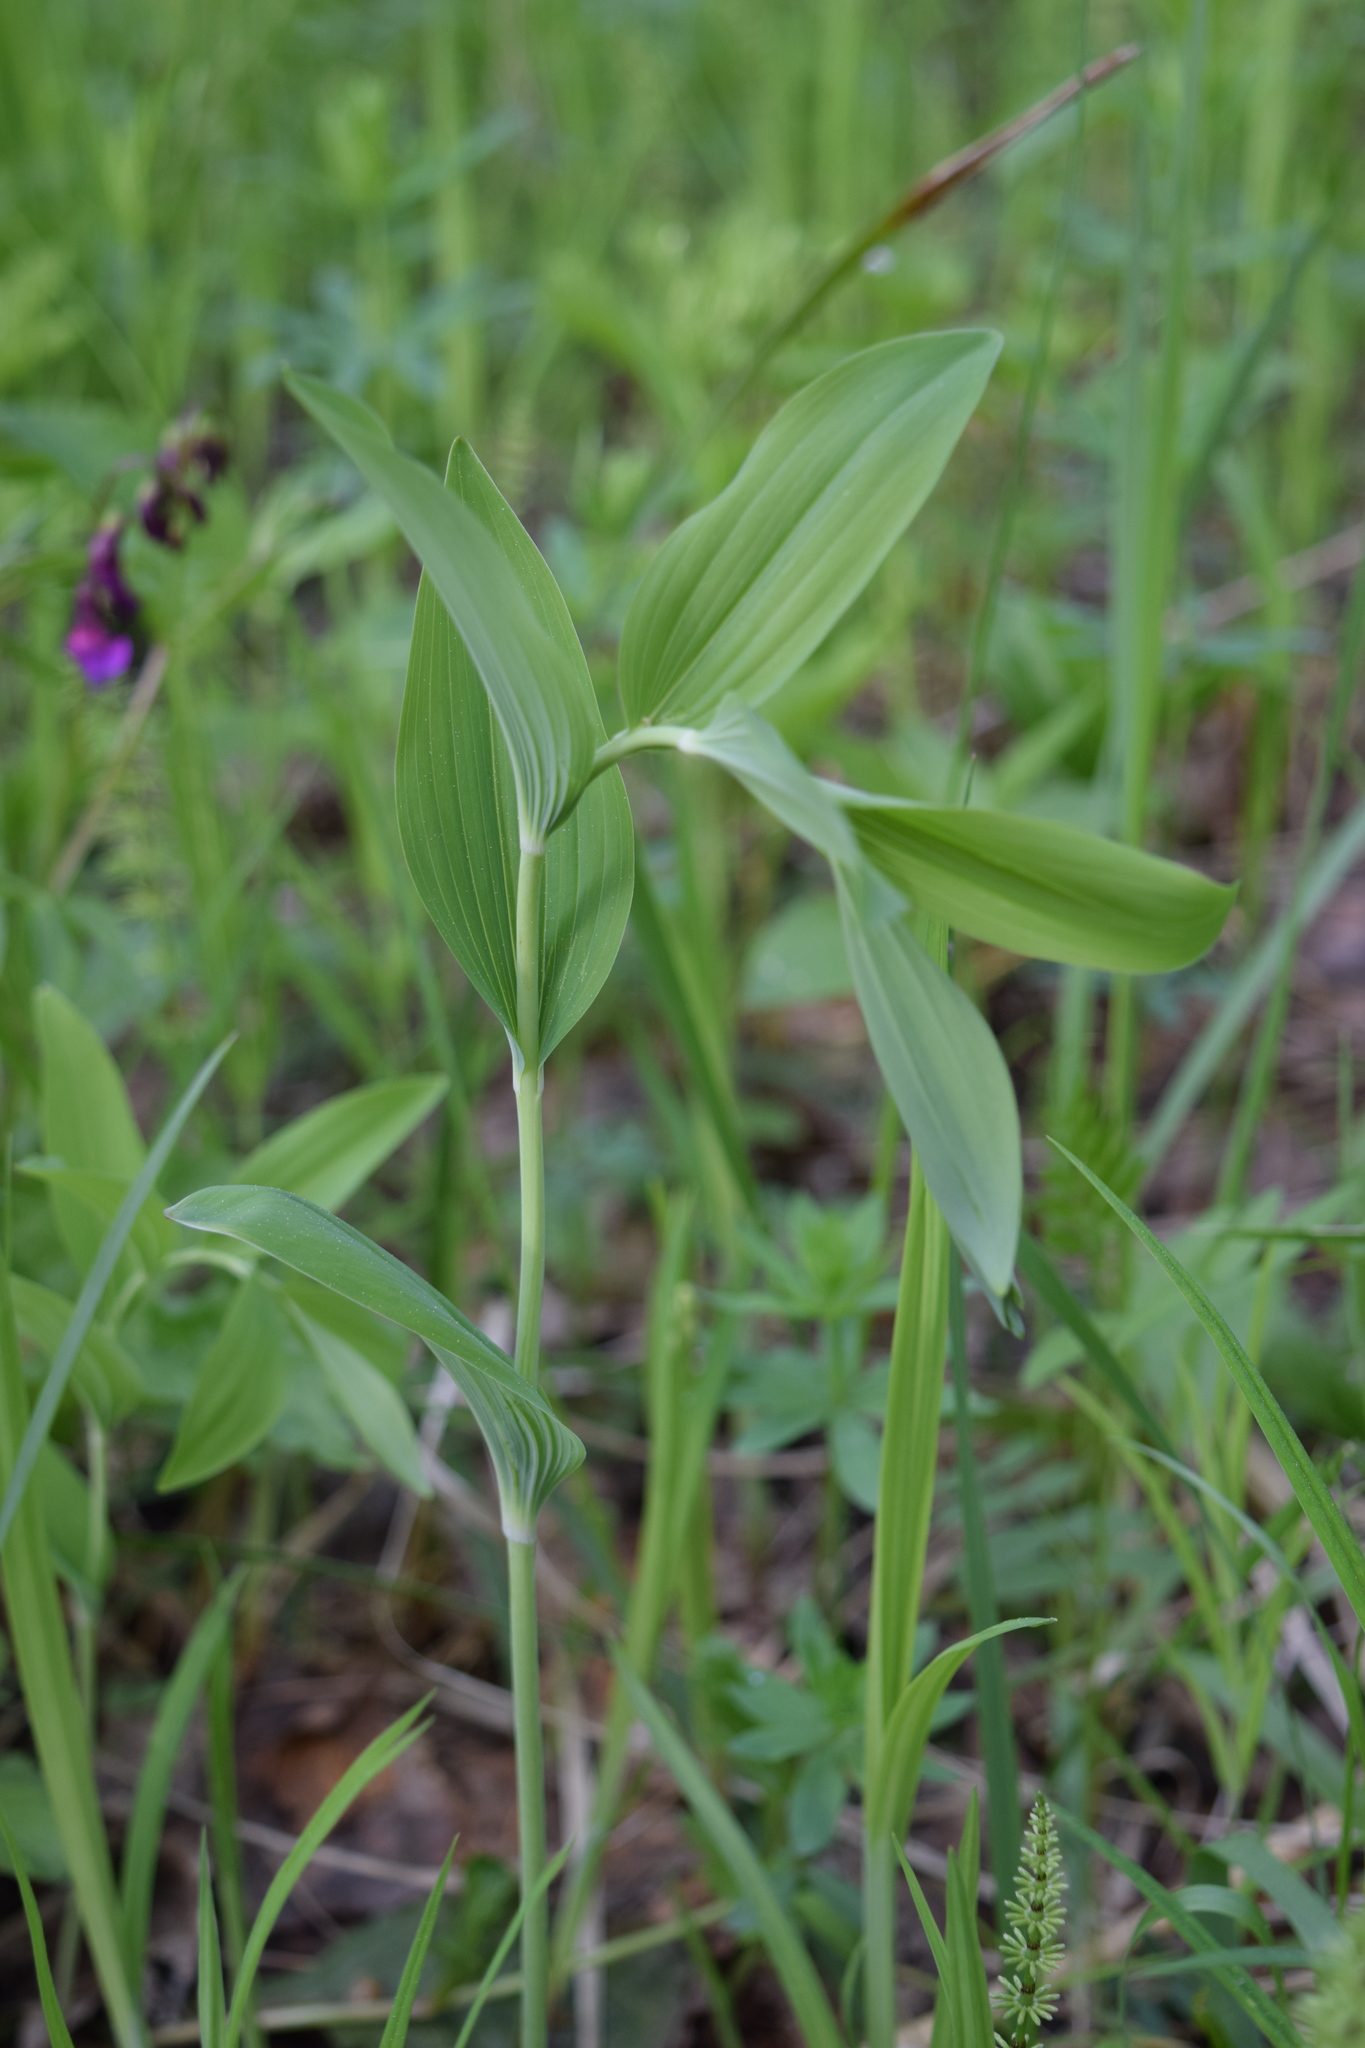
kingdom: Plantae
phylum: Tracheophyta
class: Liliopsida
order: Asparagales
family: Asparagaceae
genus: Polygonatum
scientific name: Polygonatum multiflorum
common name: Solomon's-seal
